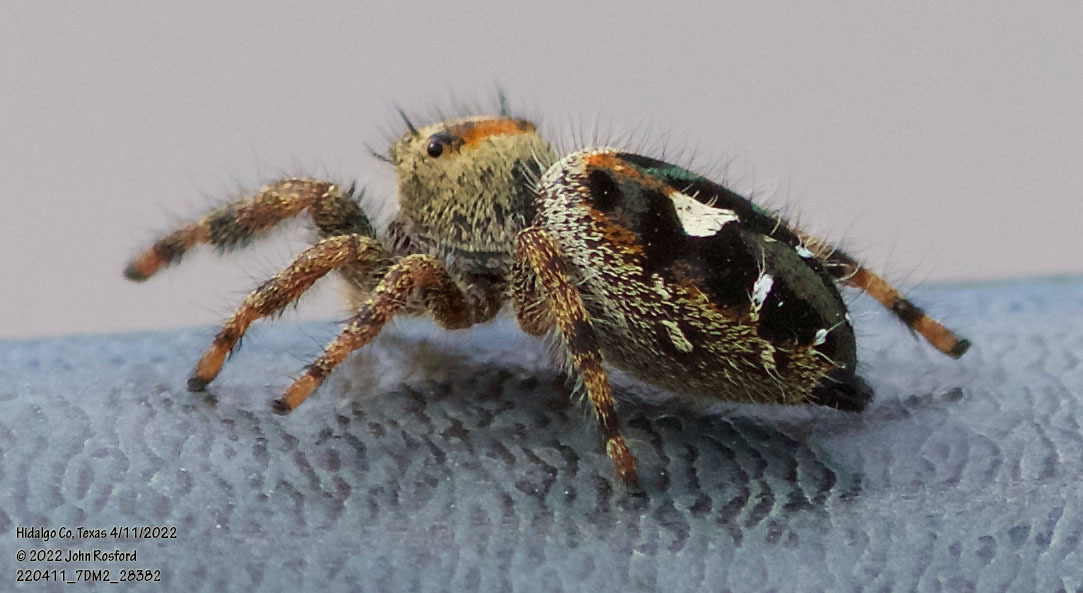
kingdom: Animalia
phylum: Arthropoda
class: Arachnida
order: Araneae
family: Salticidae
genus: Phidippus
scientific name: Phidippus audax
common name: Bold jumper
